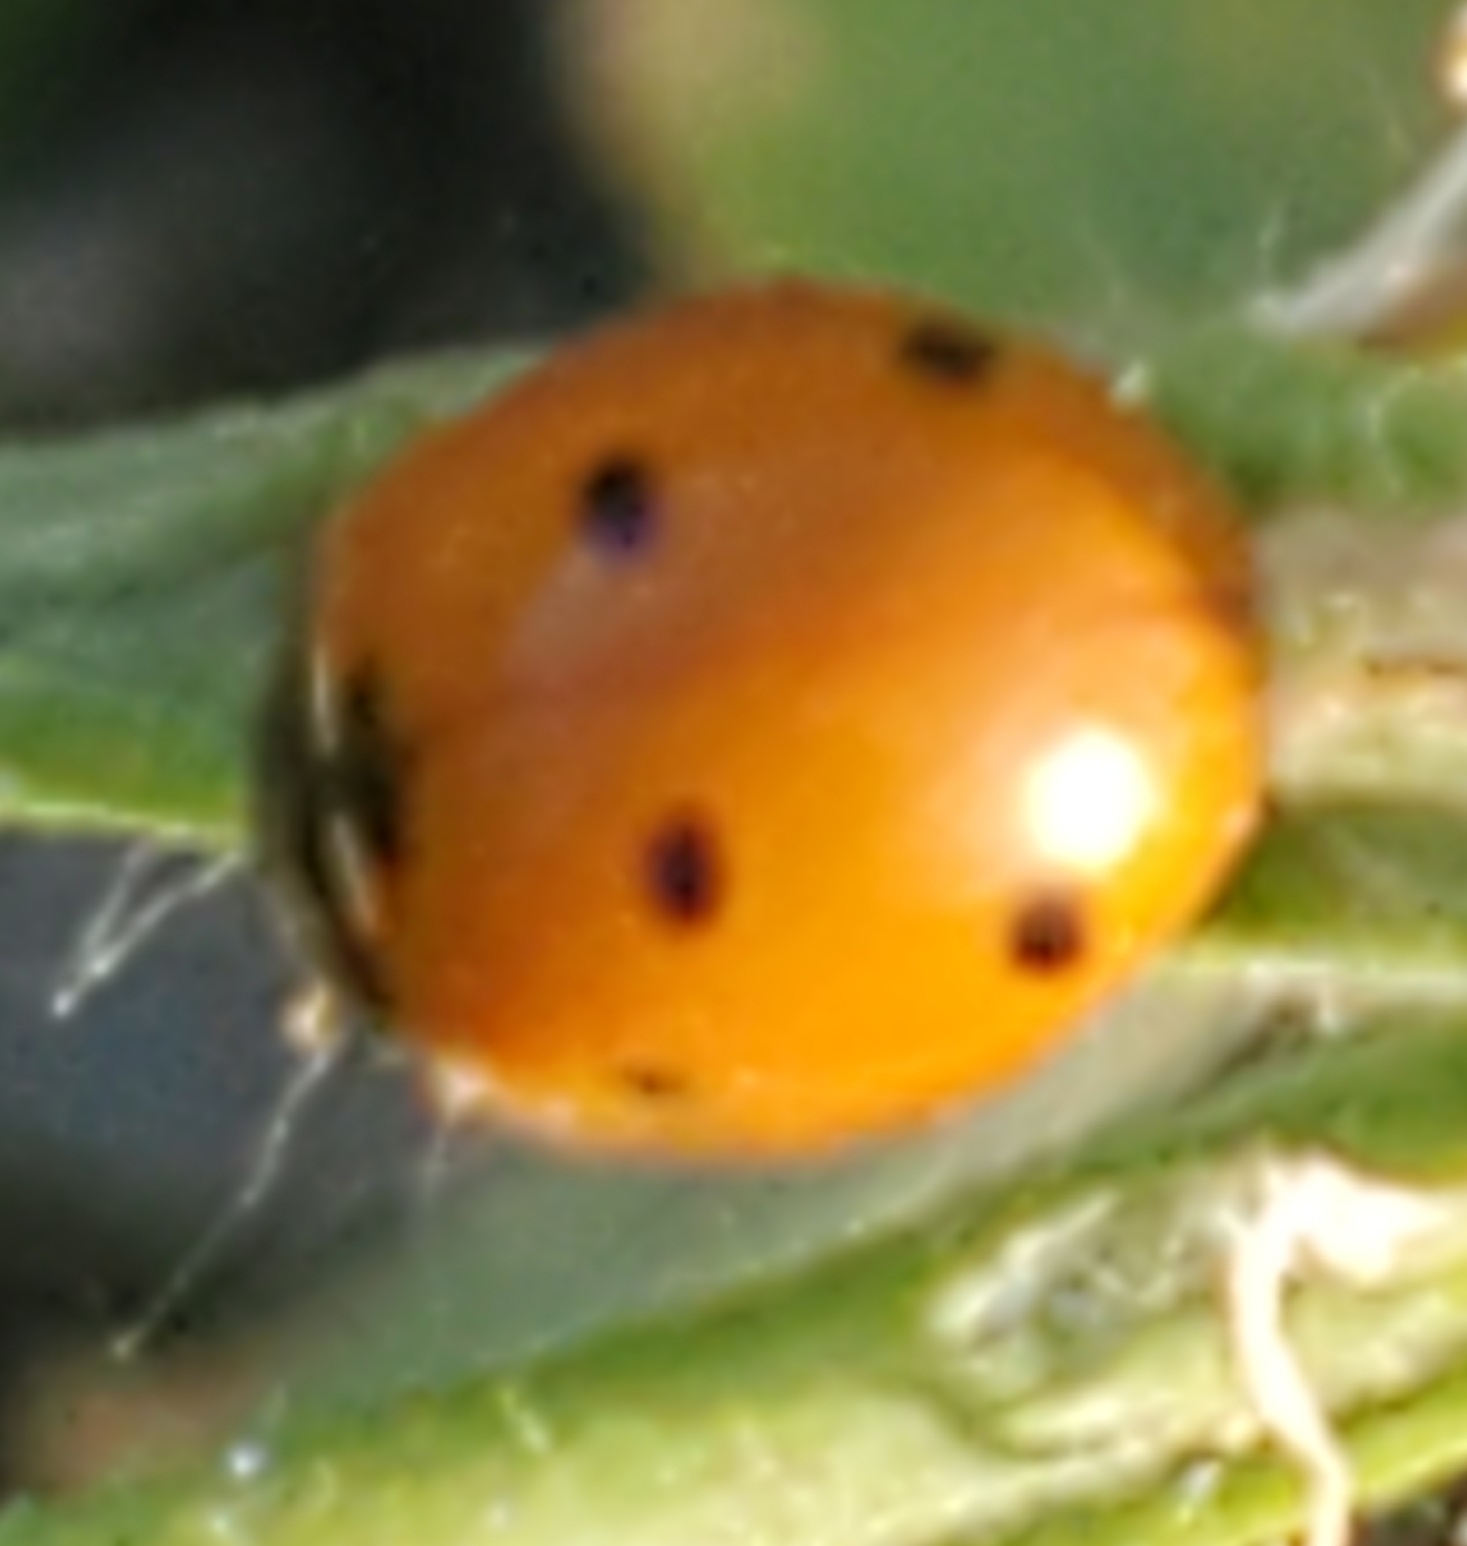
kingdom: Animalia
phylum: Arthropoda
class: Insecta
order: Coleoptera
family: Coccinellidae
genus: Coccinella
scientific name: Coccinella septempunctata
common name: Sevenspotted lady beetle
